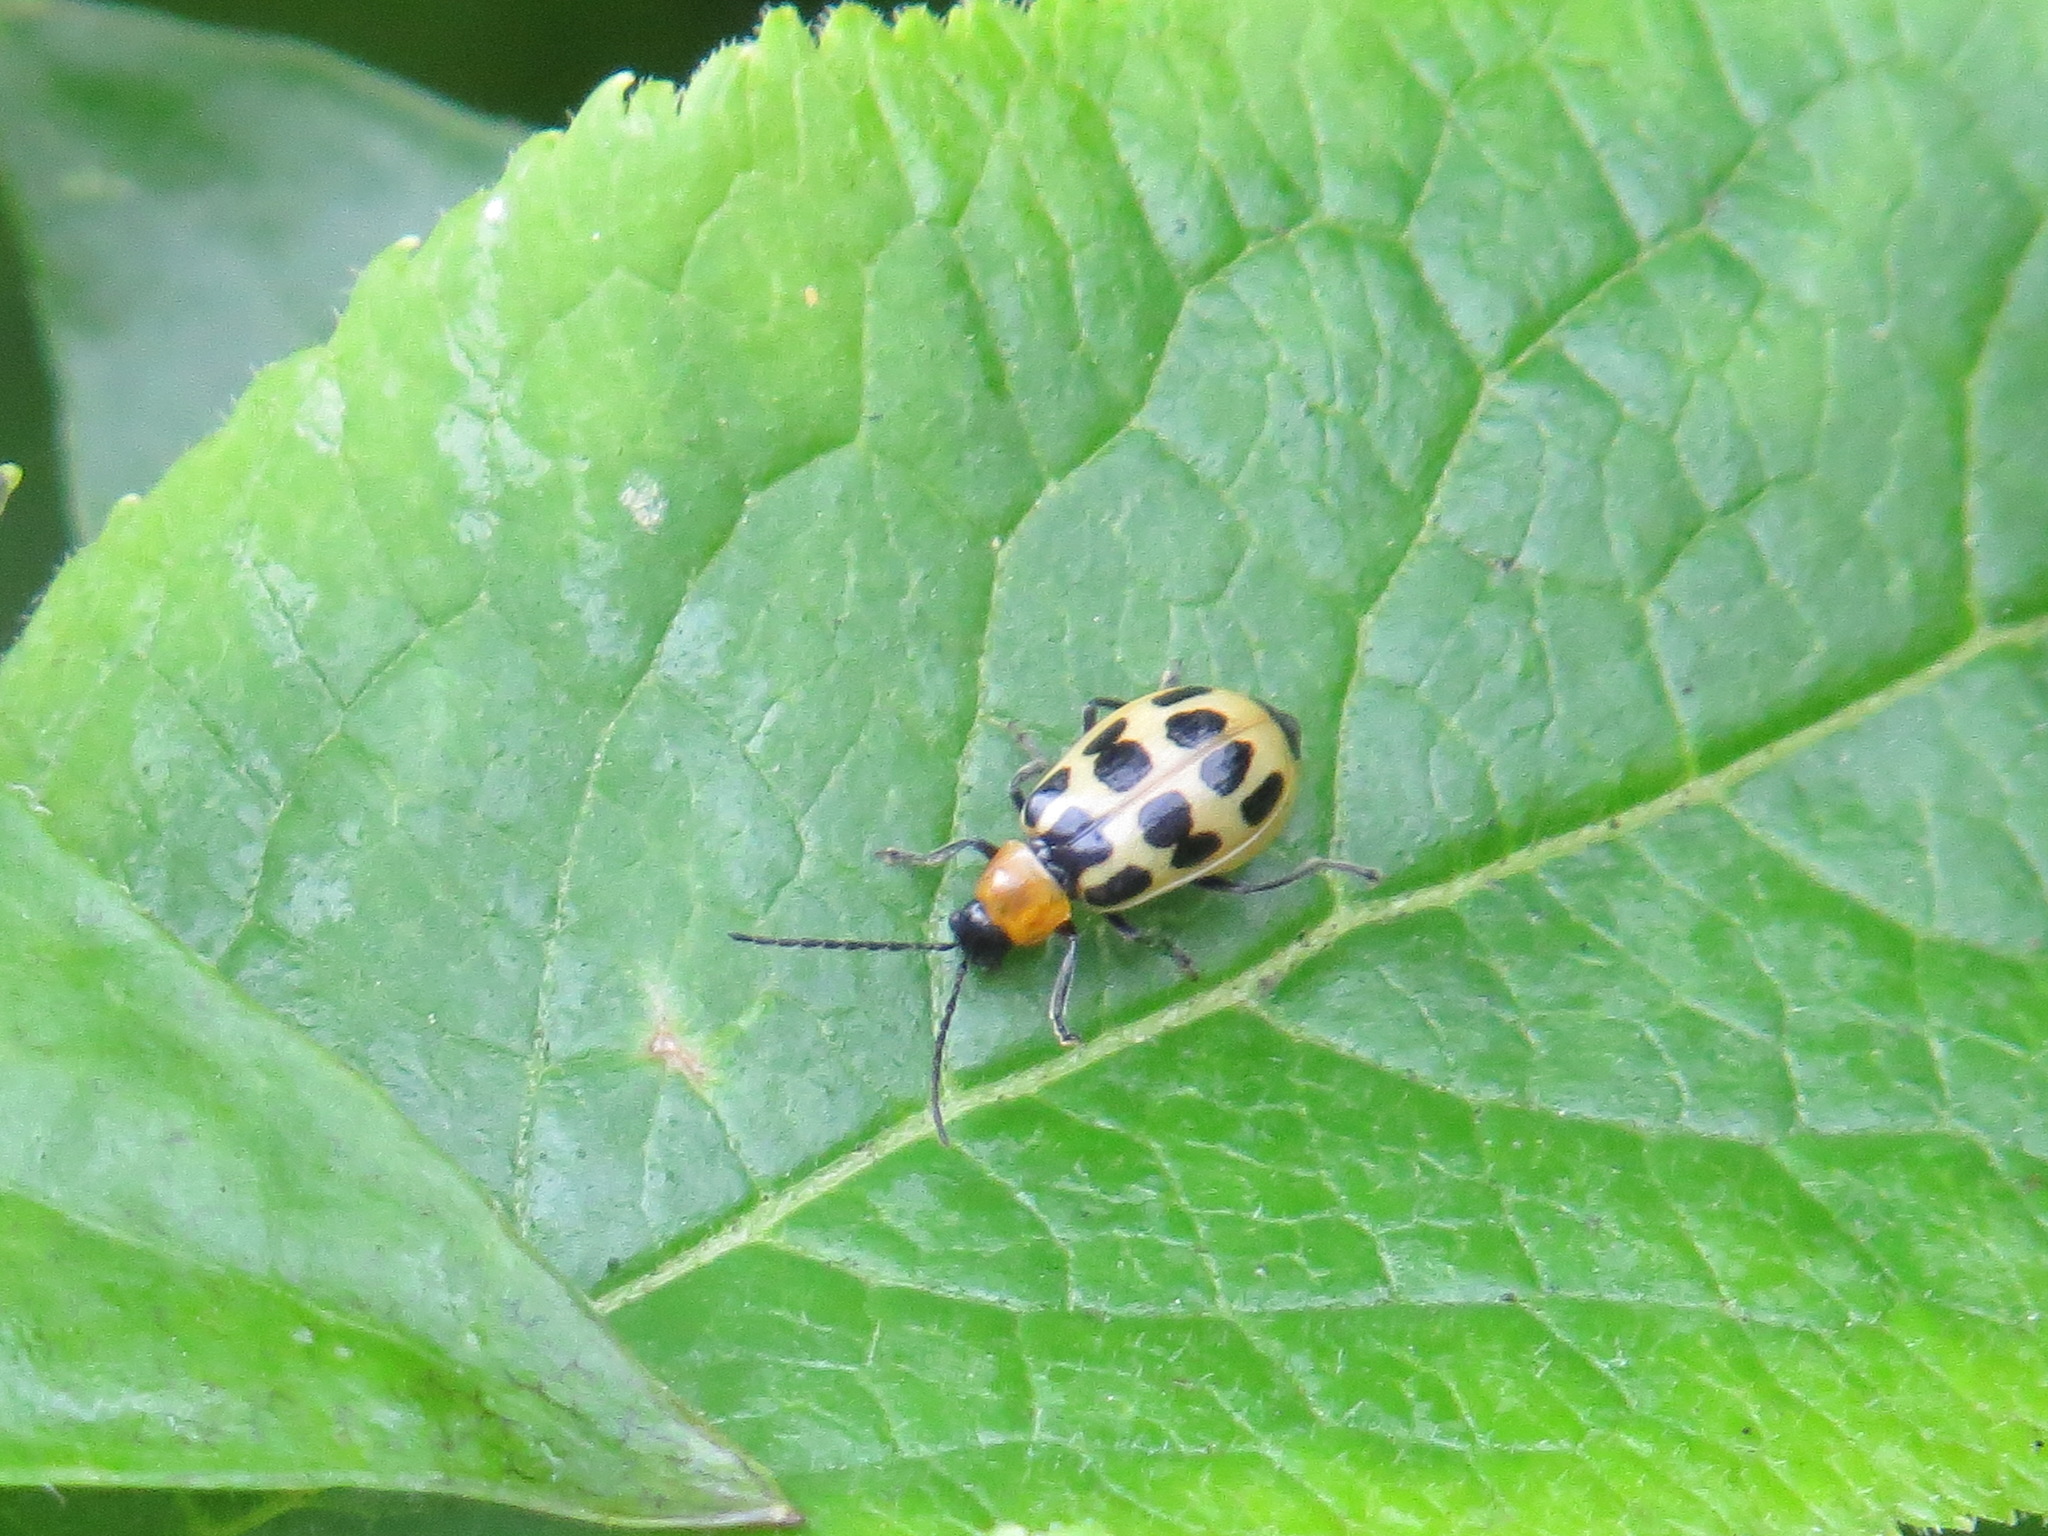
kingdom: Animalia
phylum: Arthropoda
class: Insecta
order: Coleoptera
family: Chrysomelidae
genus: Diabrotica
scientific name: Diabrotica undecimpunctata
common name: Spotted cucumber beetle
